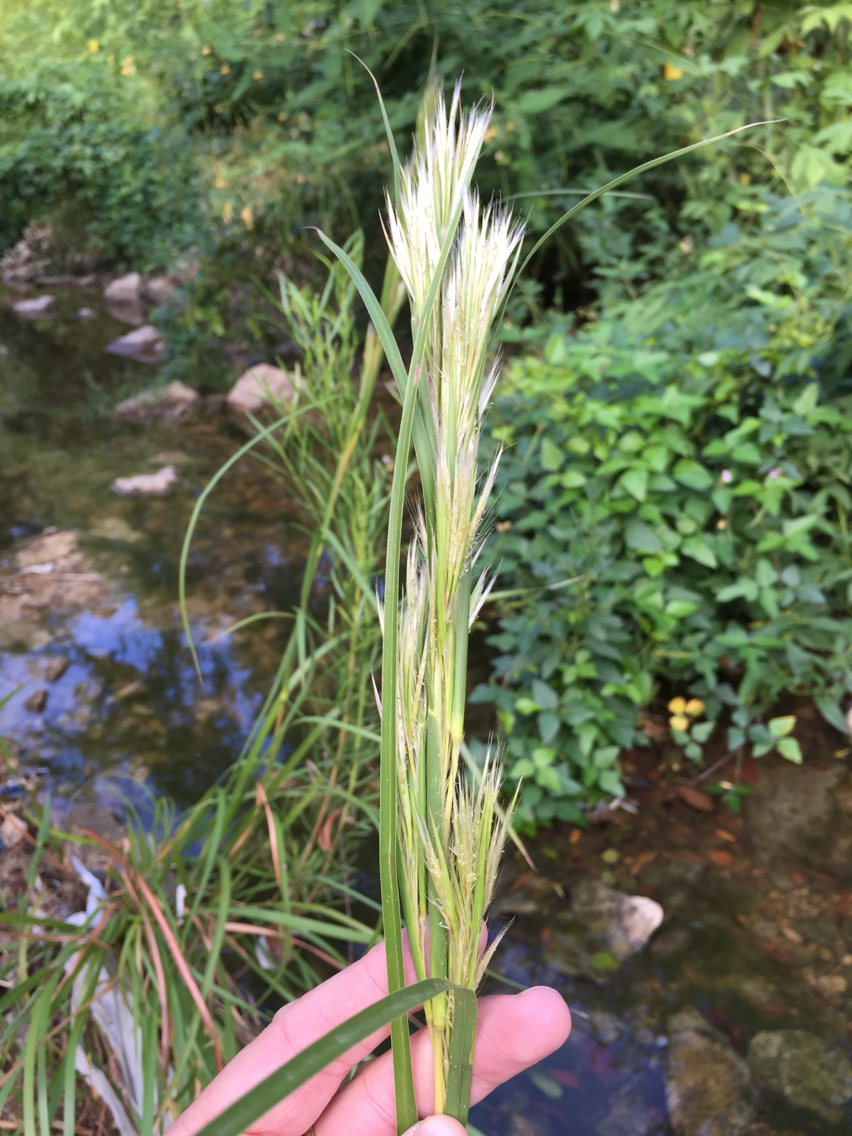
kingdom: Plantae
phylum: Tracheophyta
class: Liliopsida
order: Poales
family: Poaceae
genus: Andropogon
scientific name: Andropogon tenuispatheus
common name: Bushy bluestem
